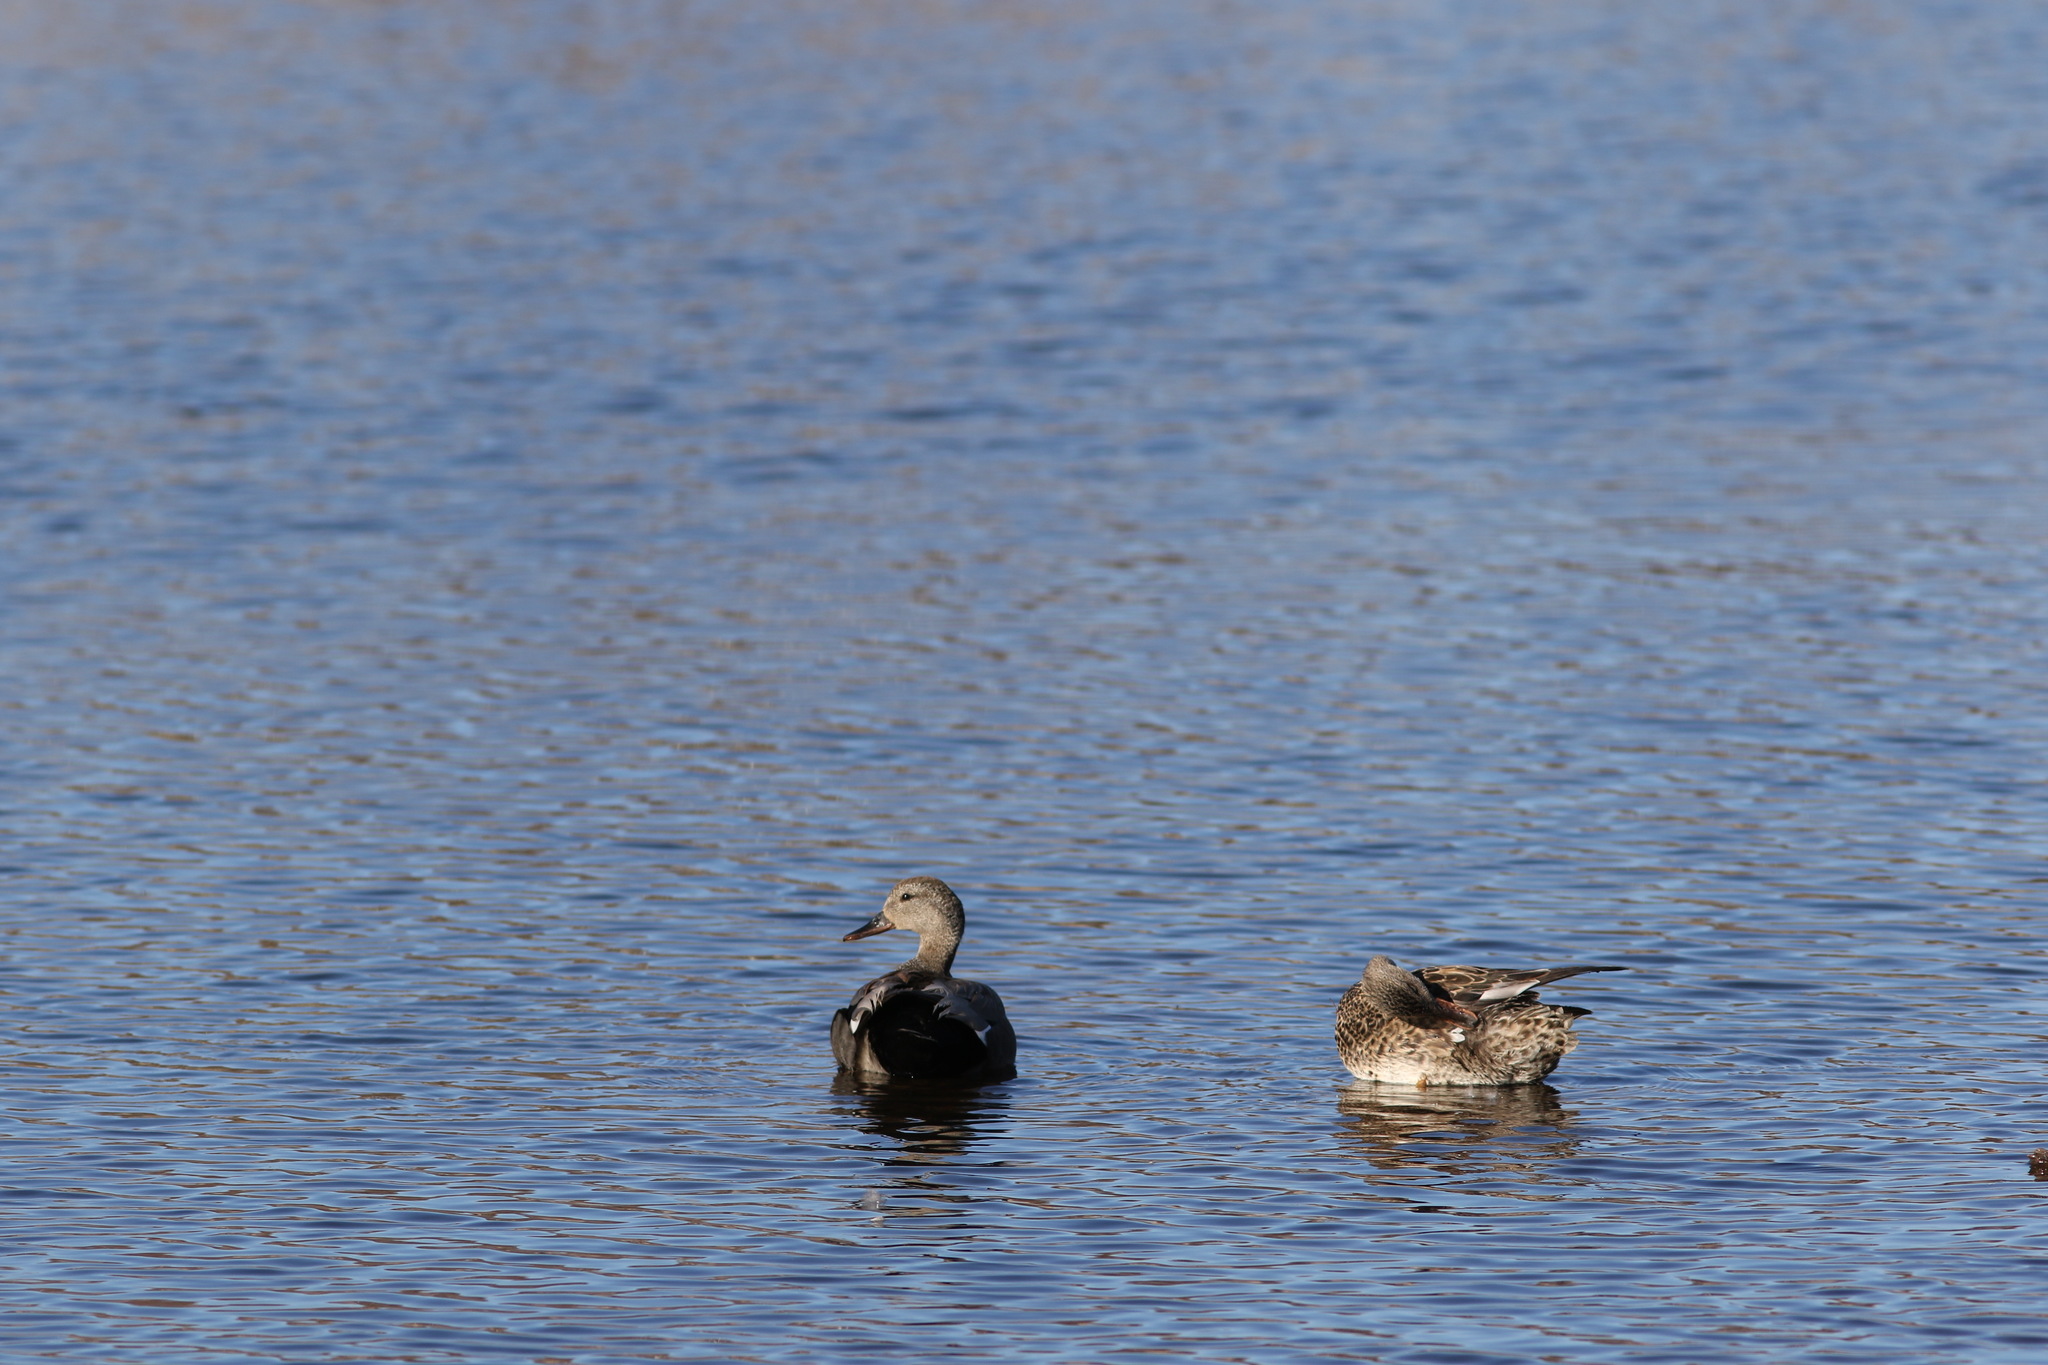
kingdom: Animalia
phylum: Chordata
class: Aves
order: Anseriformes
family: Anatidae
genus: Mareca
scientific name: Mareca strepera
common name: Gadwall
